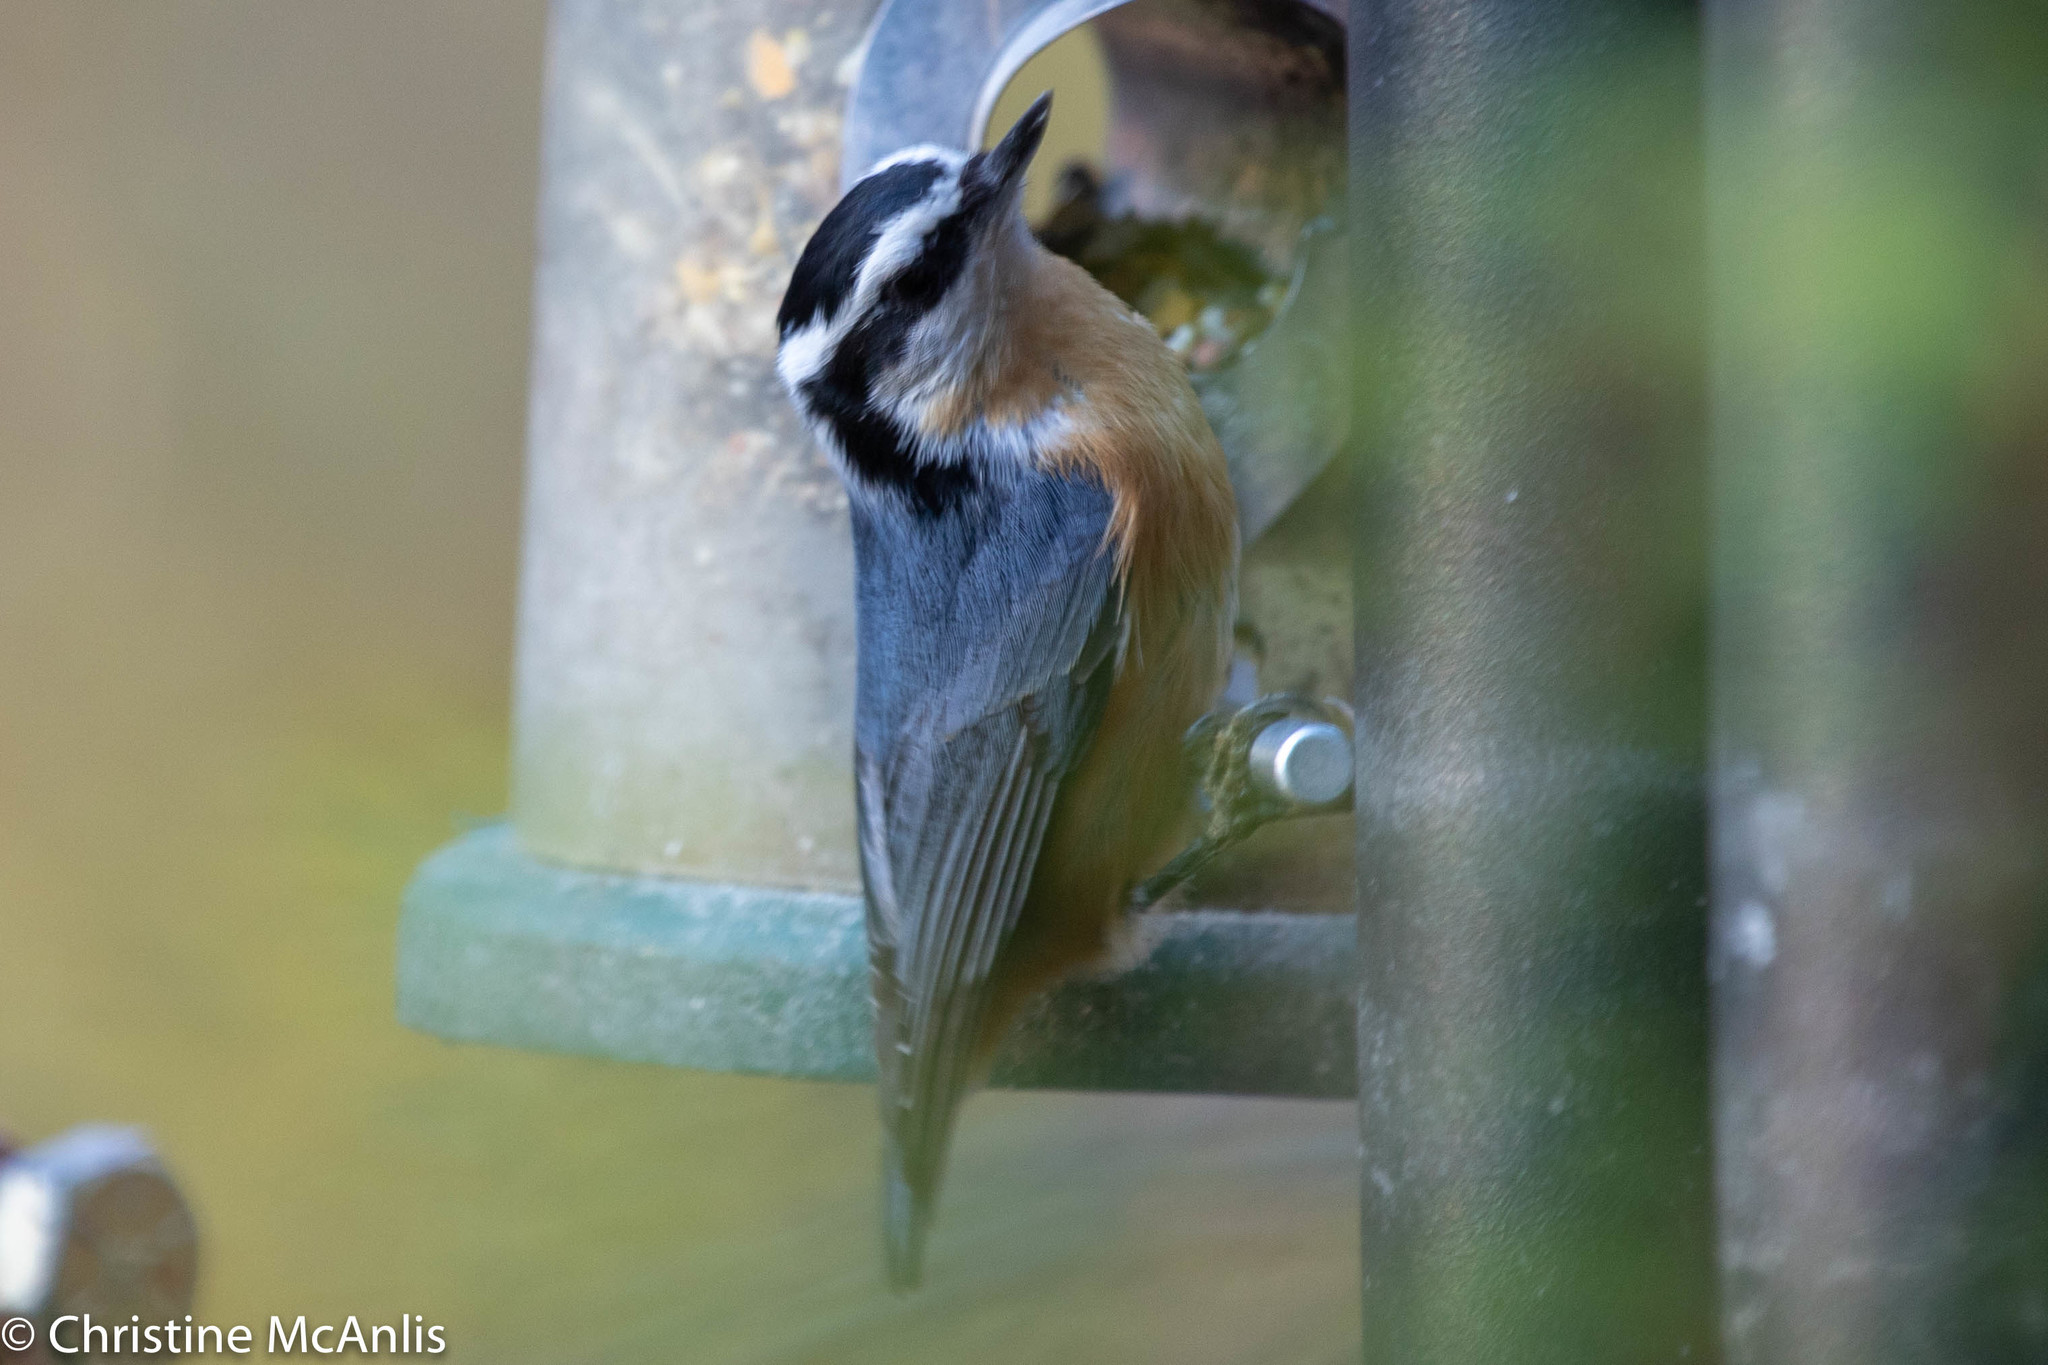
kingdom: Animalia
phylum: Chordata
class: Aves
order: Passeriformes
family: Sittidae
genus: Sitta
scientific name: Sitta canadensis
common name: Red-breasted nuthatch
